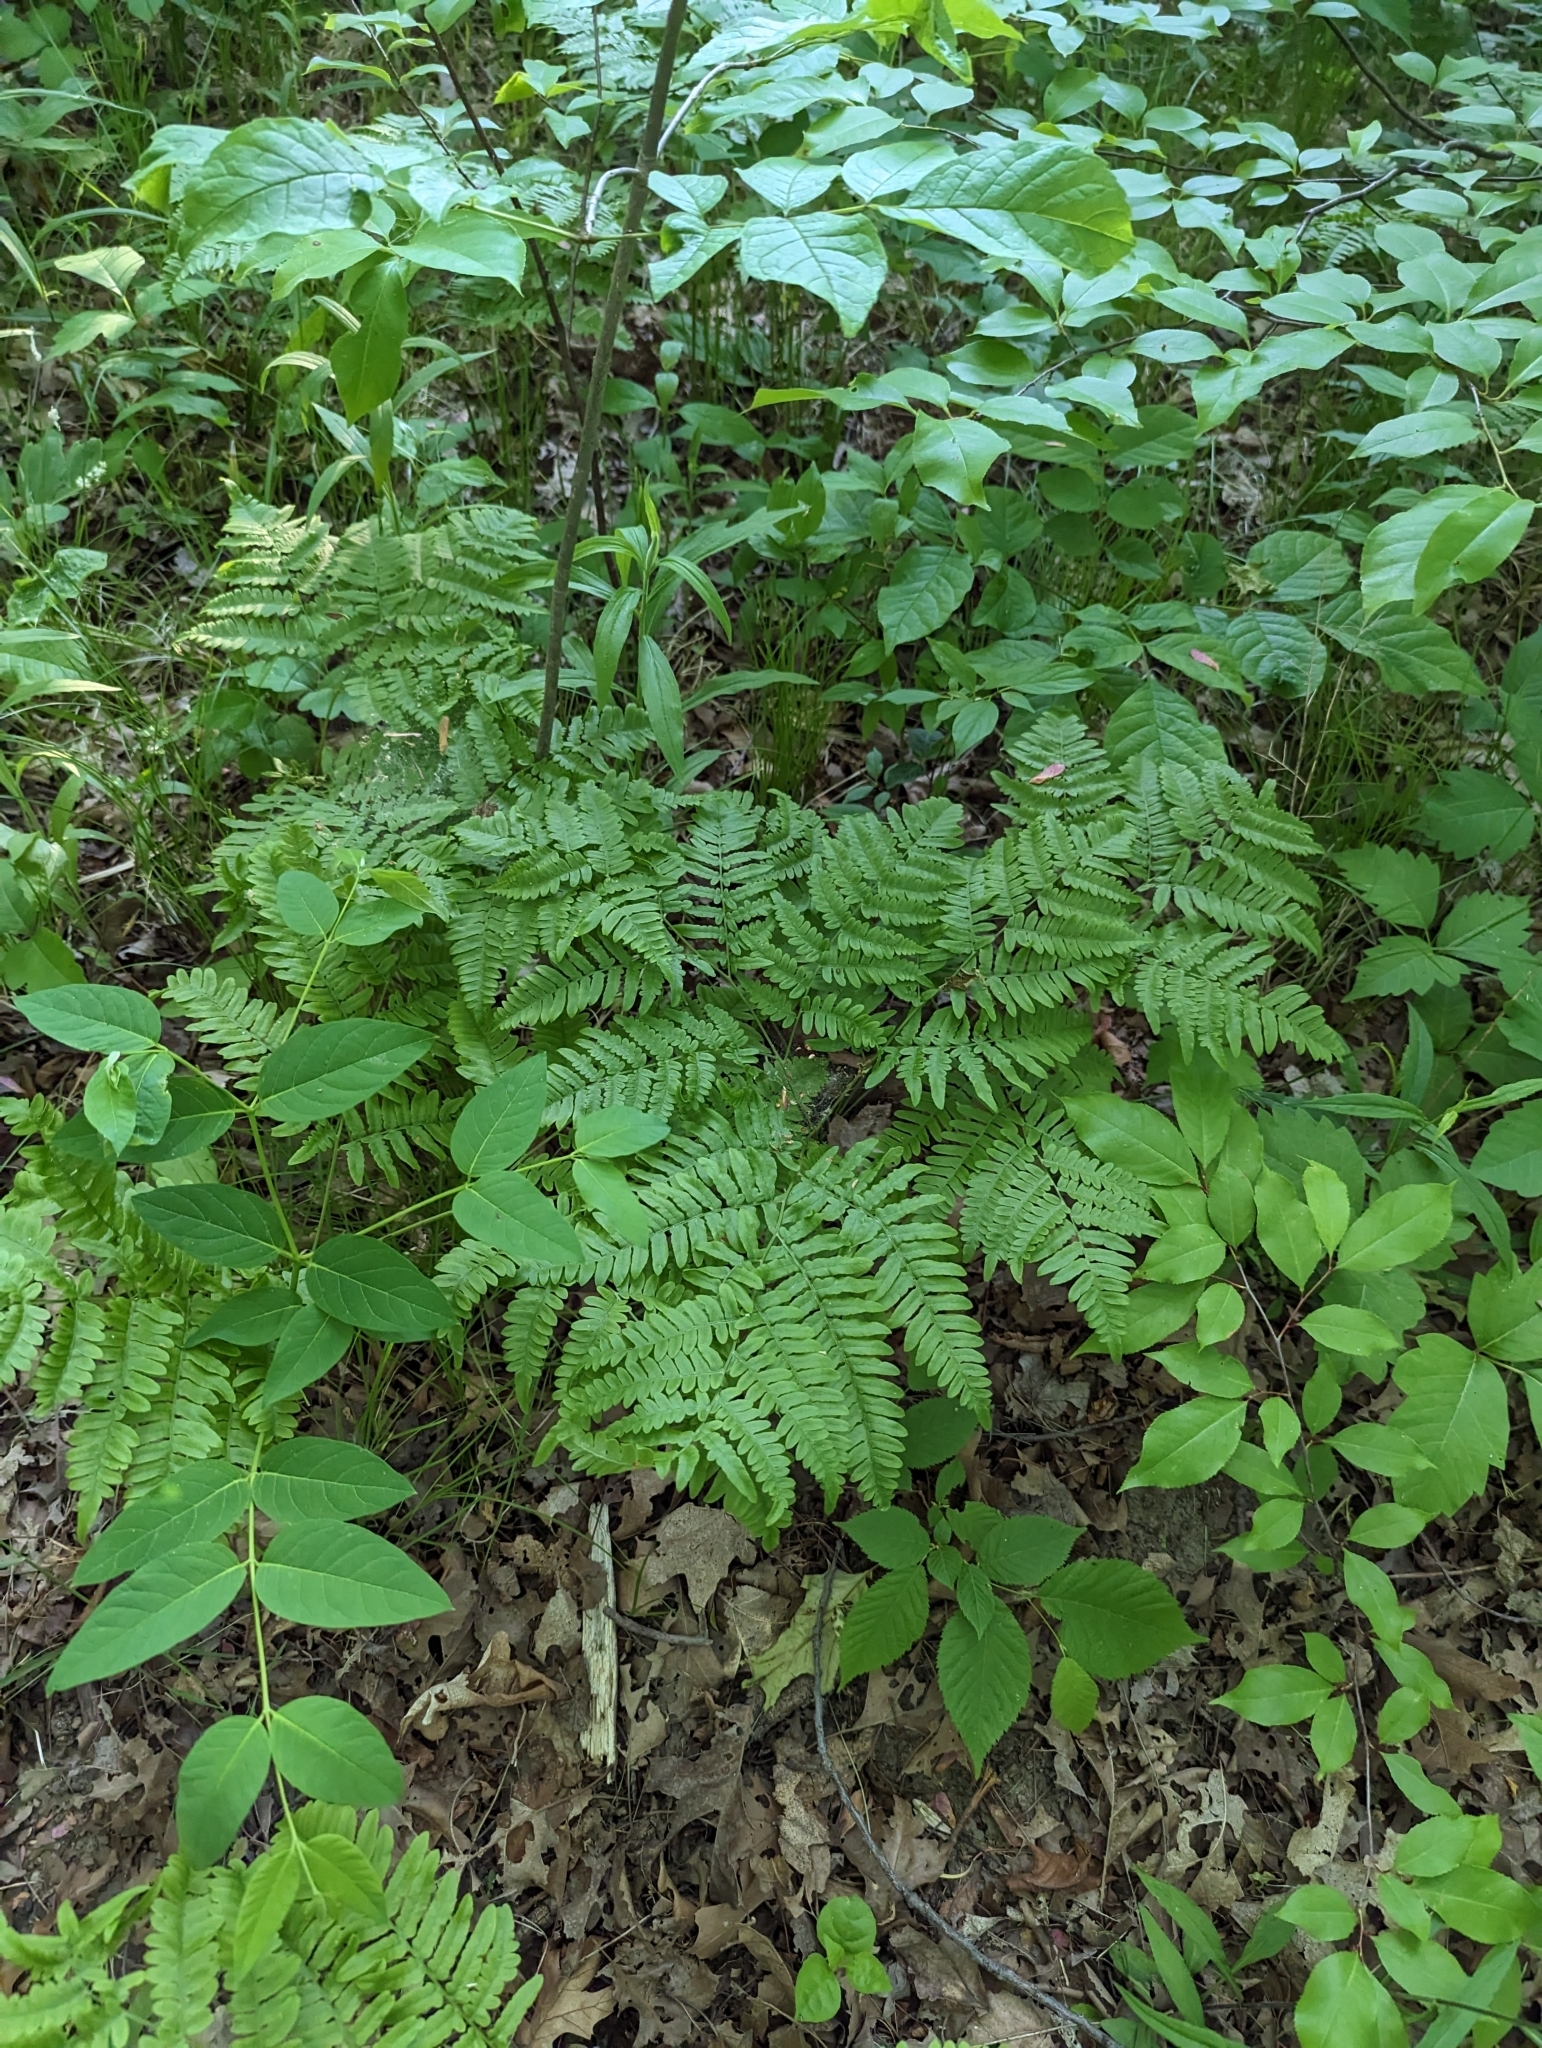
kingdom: Plantae
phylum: Tracheophyta
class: Polypodiopsida
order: Polypodiales
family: Dennstaedtiaceae
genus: Pteridium
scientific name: Pteridium aquilinum
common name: Bracken
